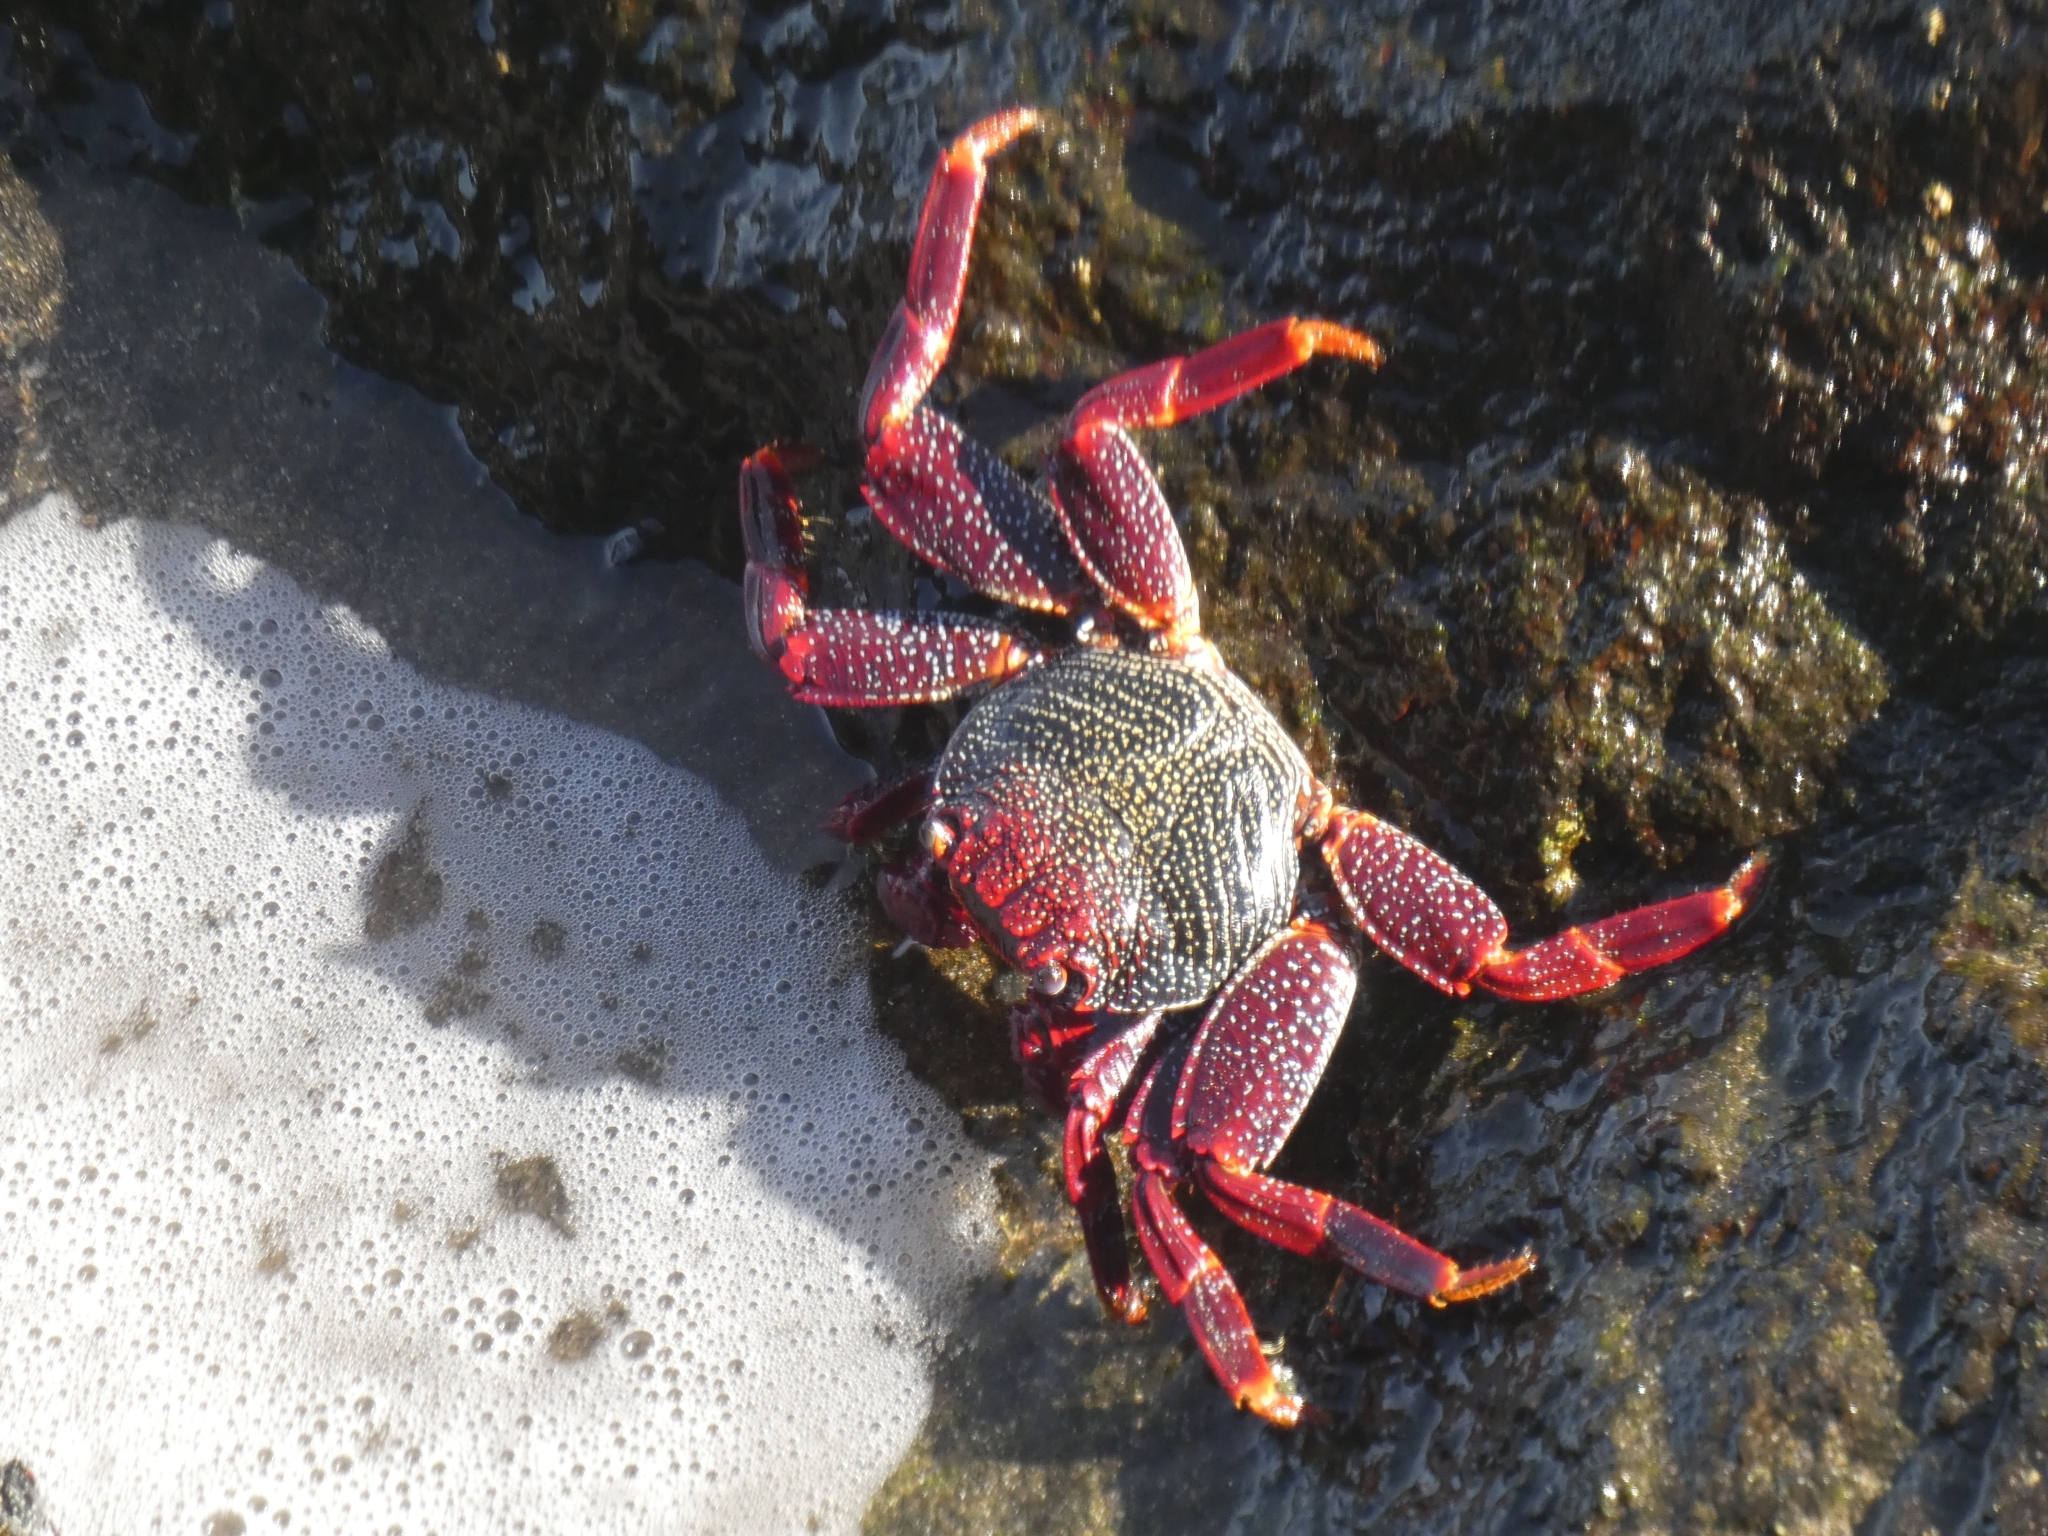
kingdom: Animalia
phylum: Arthropoda
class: Malacostraca
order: Decapoda
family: Grapsidae
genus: Grapsus
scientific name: Grapsus adscensionis
